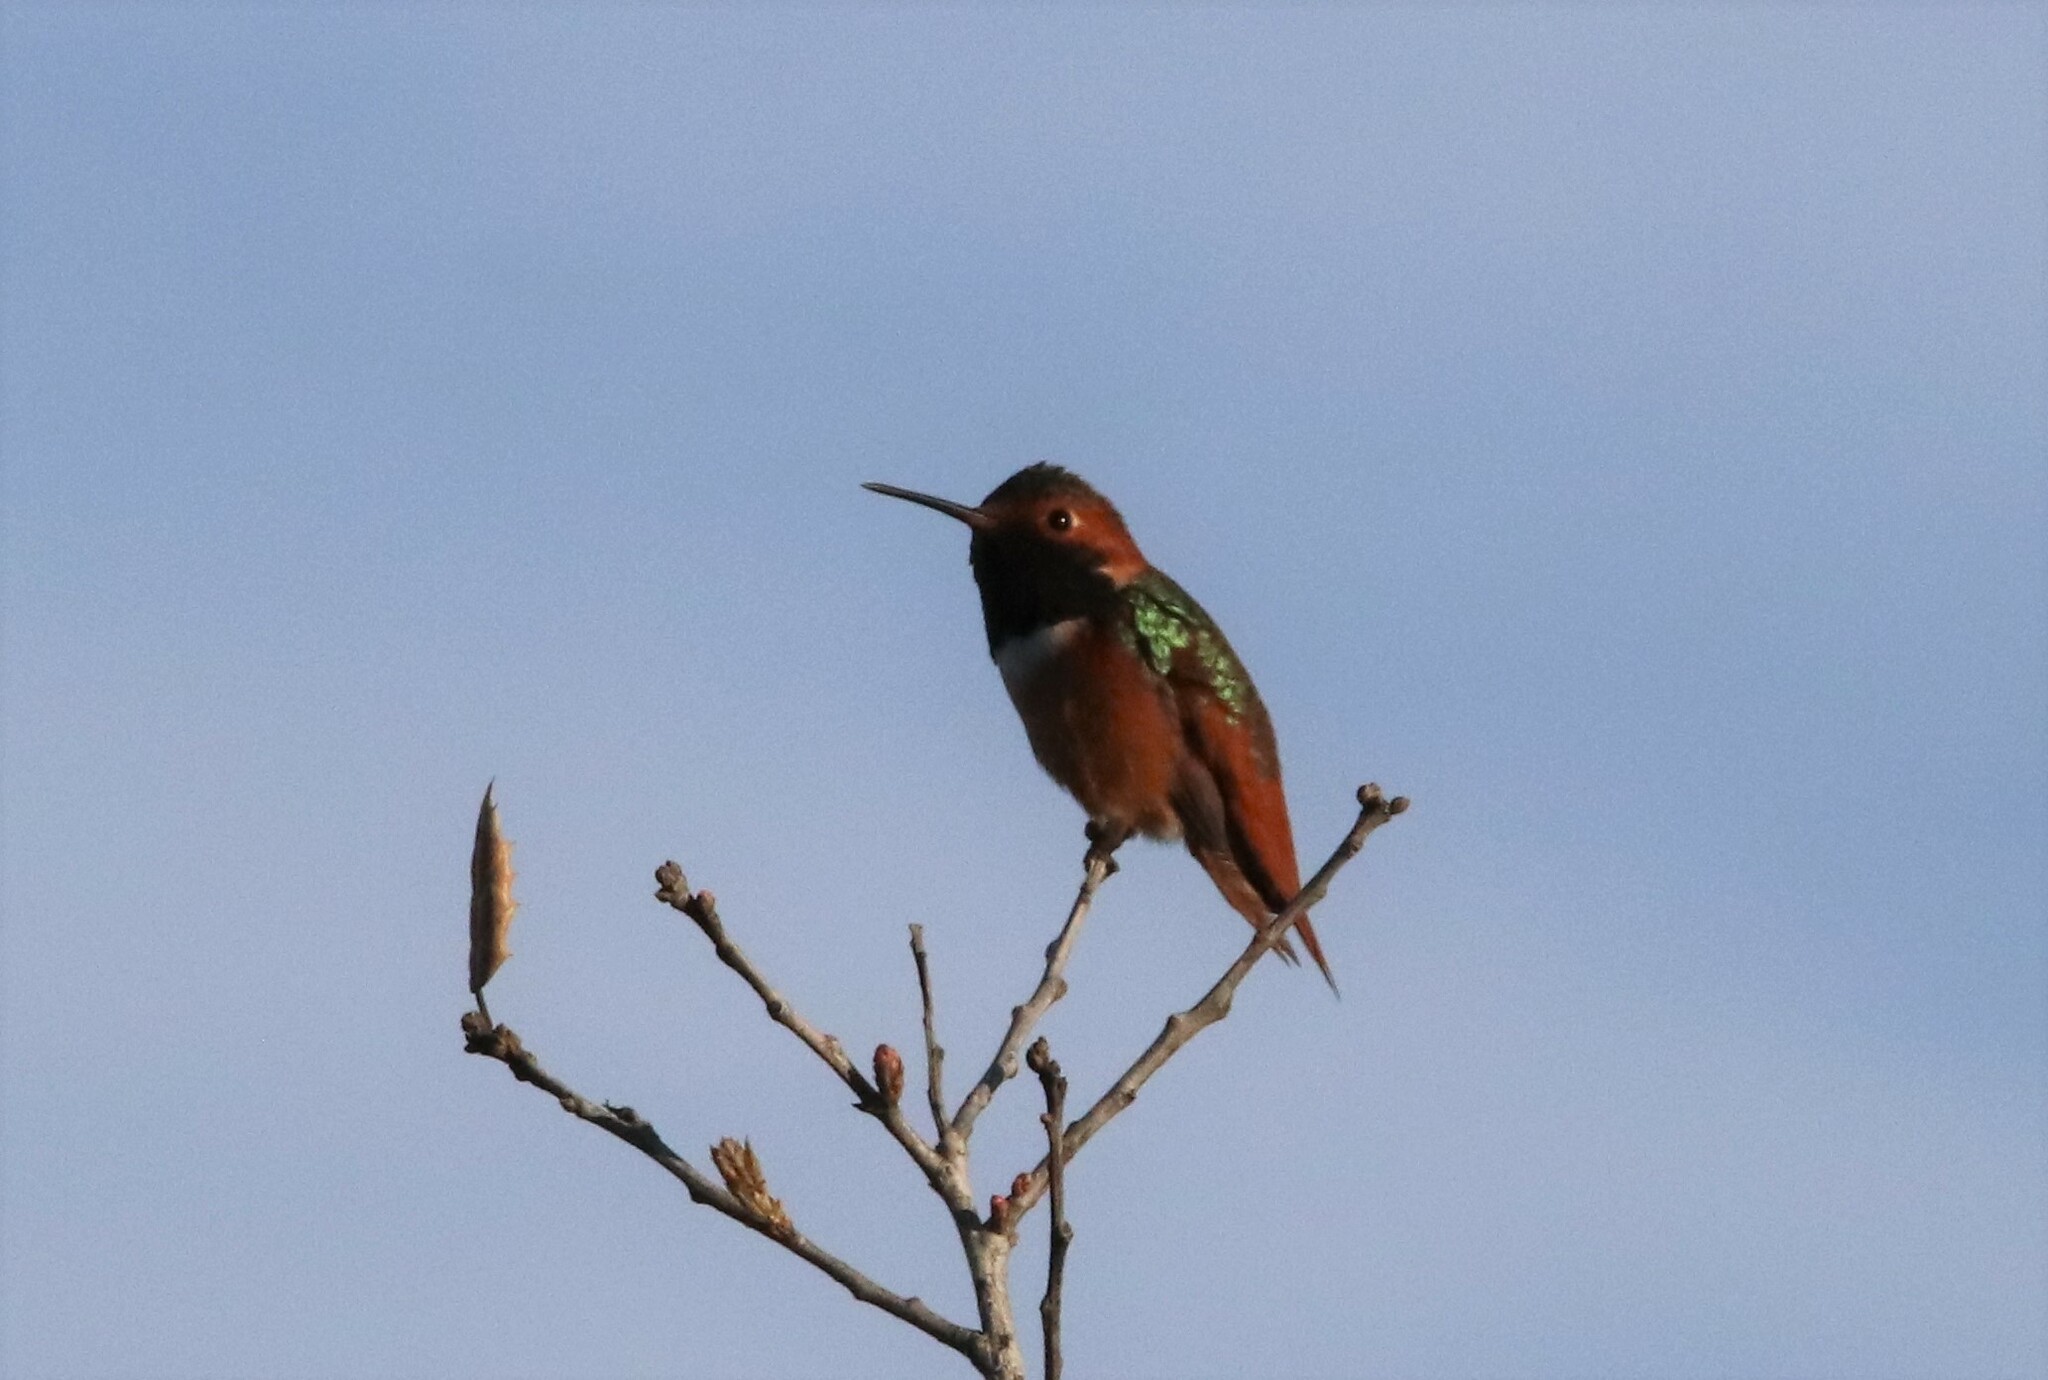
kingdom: Animalia
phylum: Chordata
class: Aves
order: Apodiformes
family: Trochilidae
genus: Selasphorus
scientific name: Selasphorus sasin
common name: Allen's hummingbird
